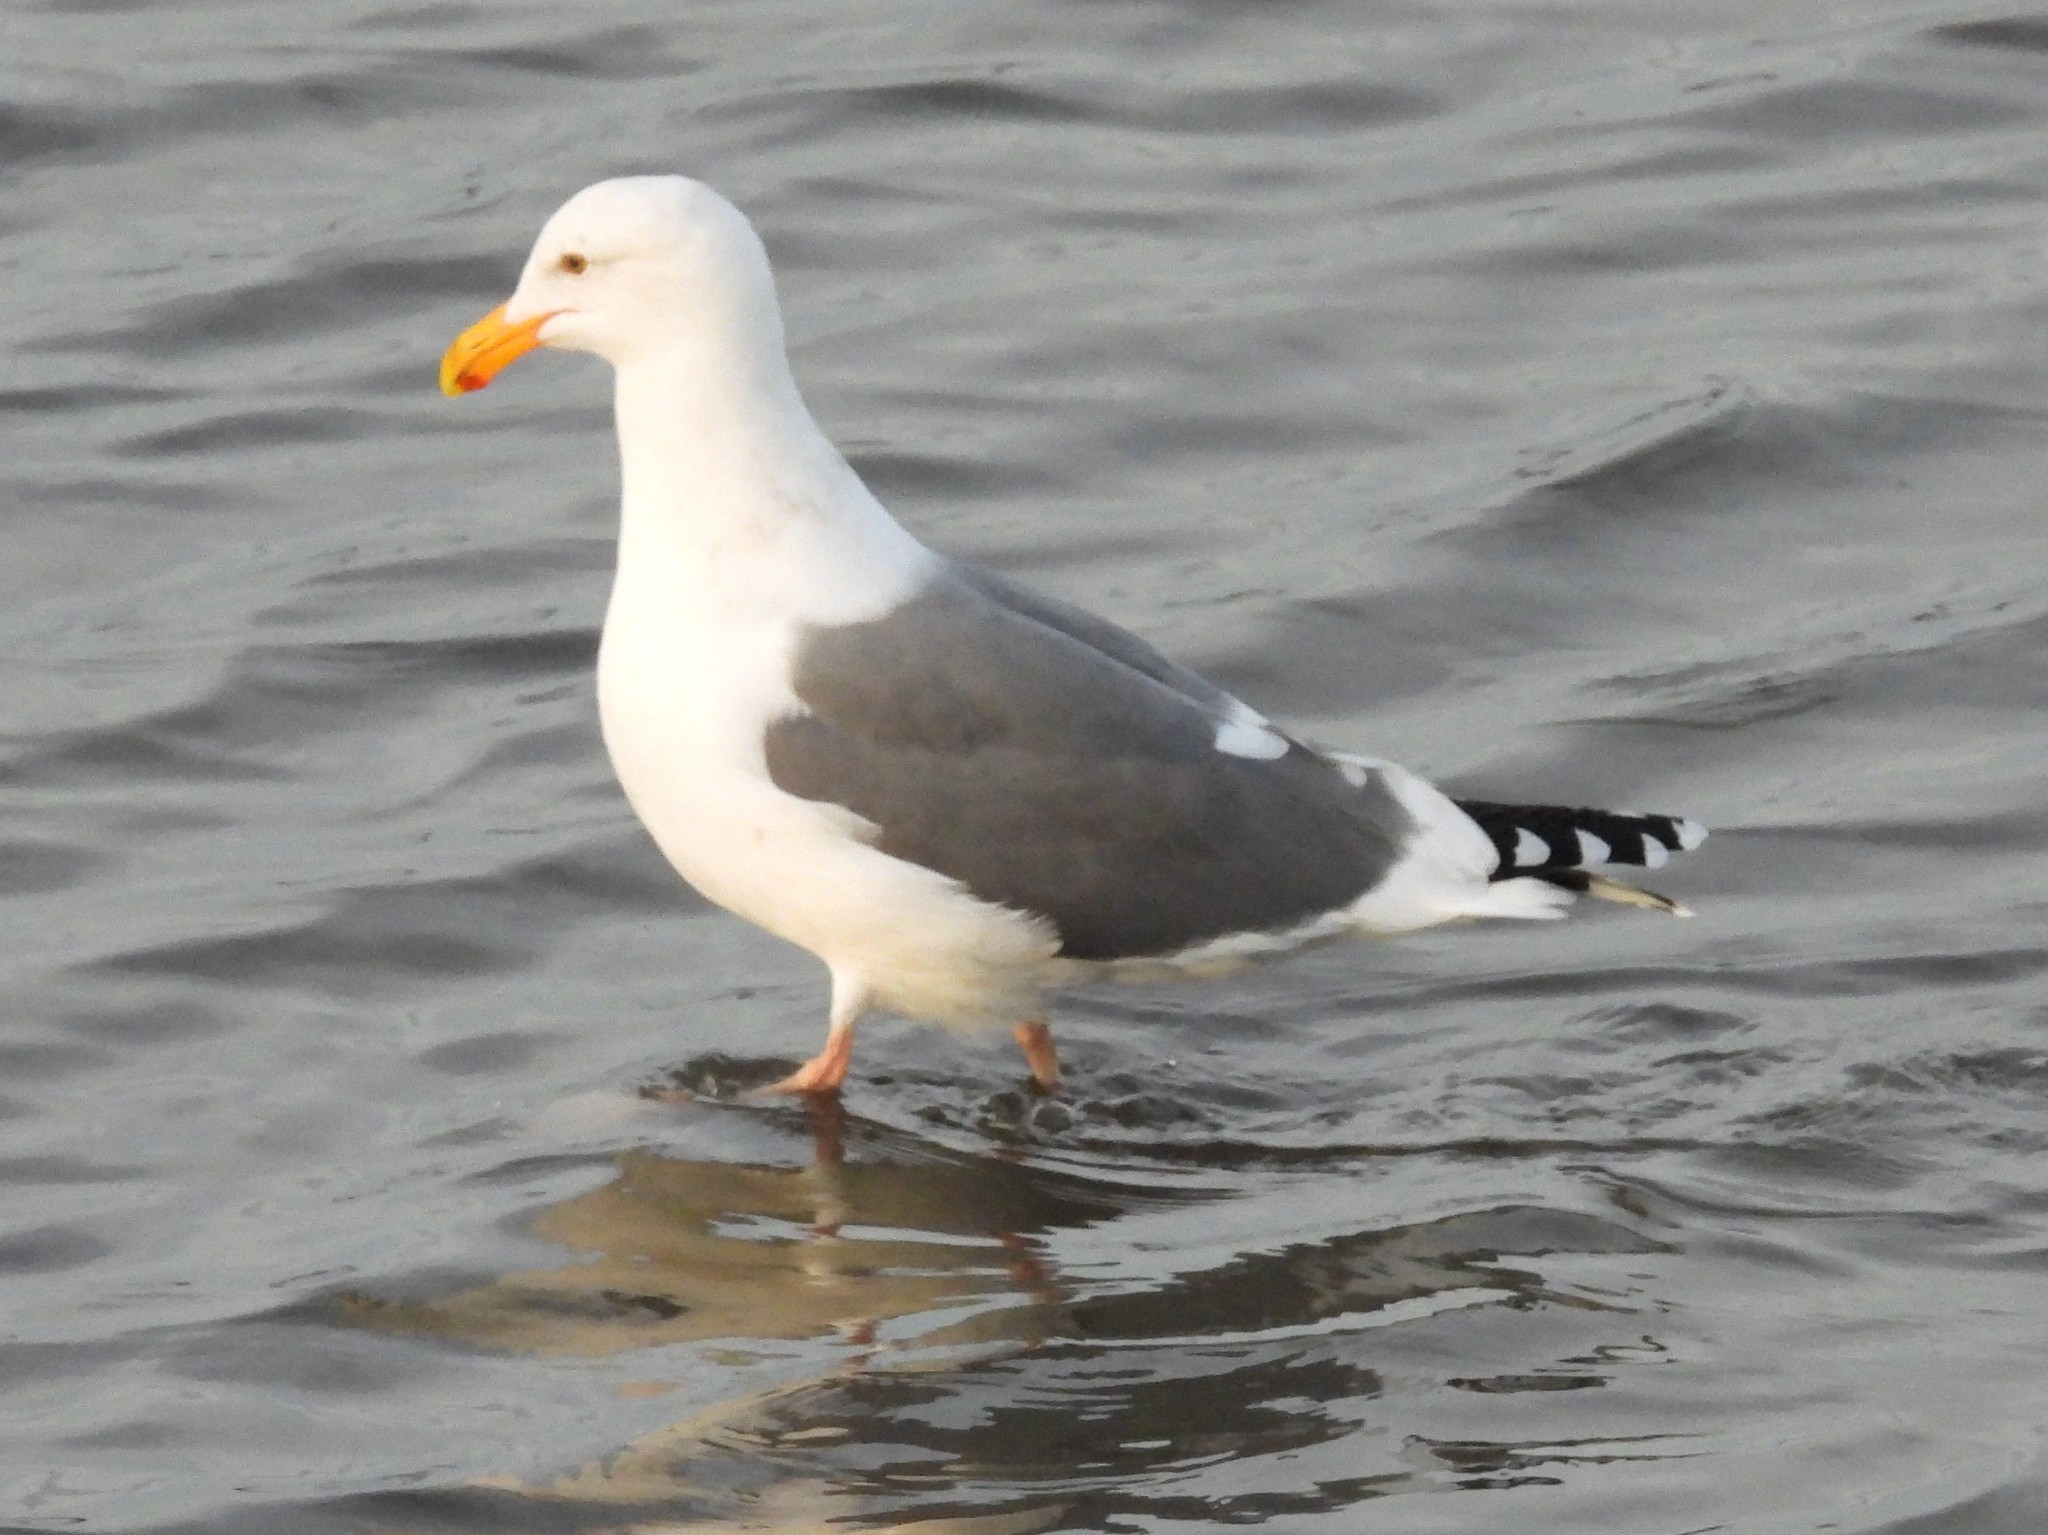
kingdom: Animalia
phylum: Chordata
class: Aves
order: Charadriiformes
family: Laridae
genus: Larus
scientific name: Larus occidentalis
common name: Western gull
